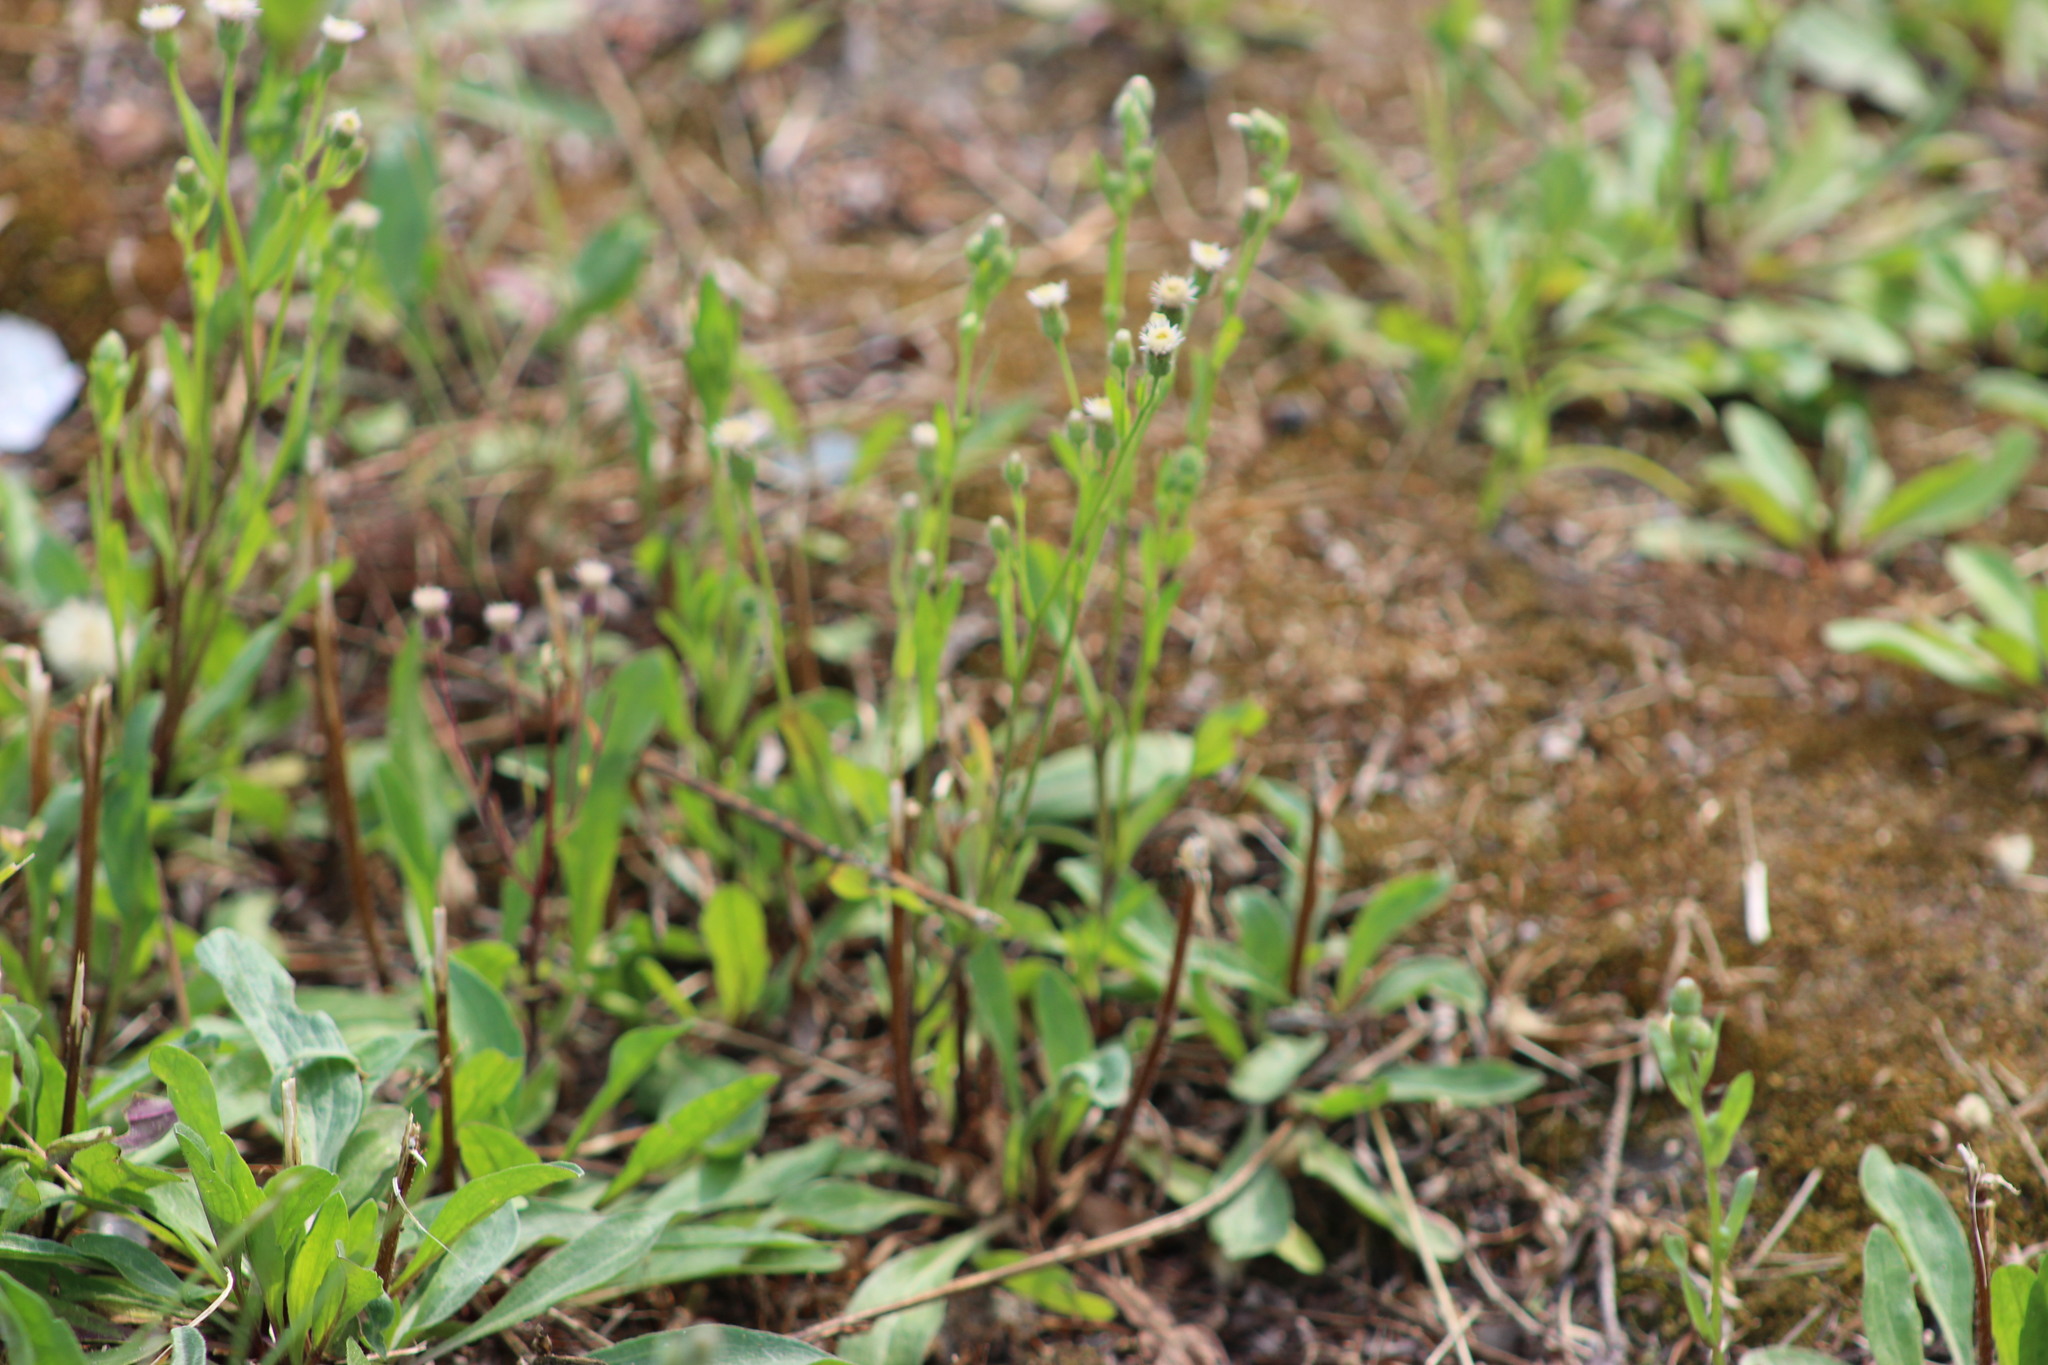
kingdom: Plantae
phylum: Tracheophyta
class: Magnoliopsida
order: Asterales
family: Asteraceae
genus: Erigeron
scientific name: Erigeron acris
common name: Blue fleabane
